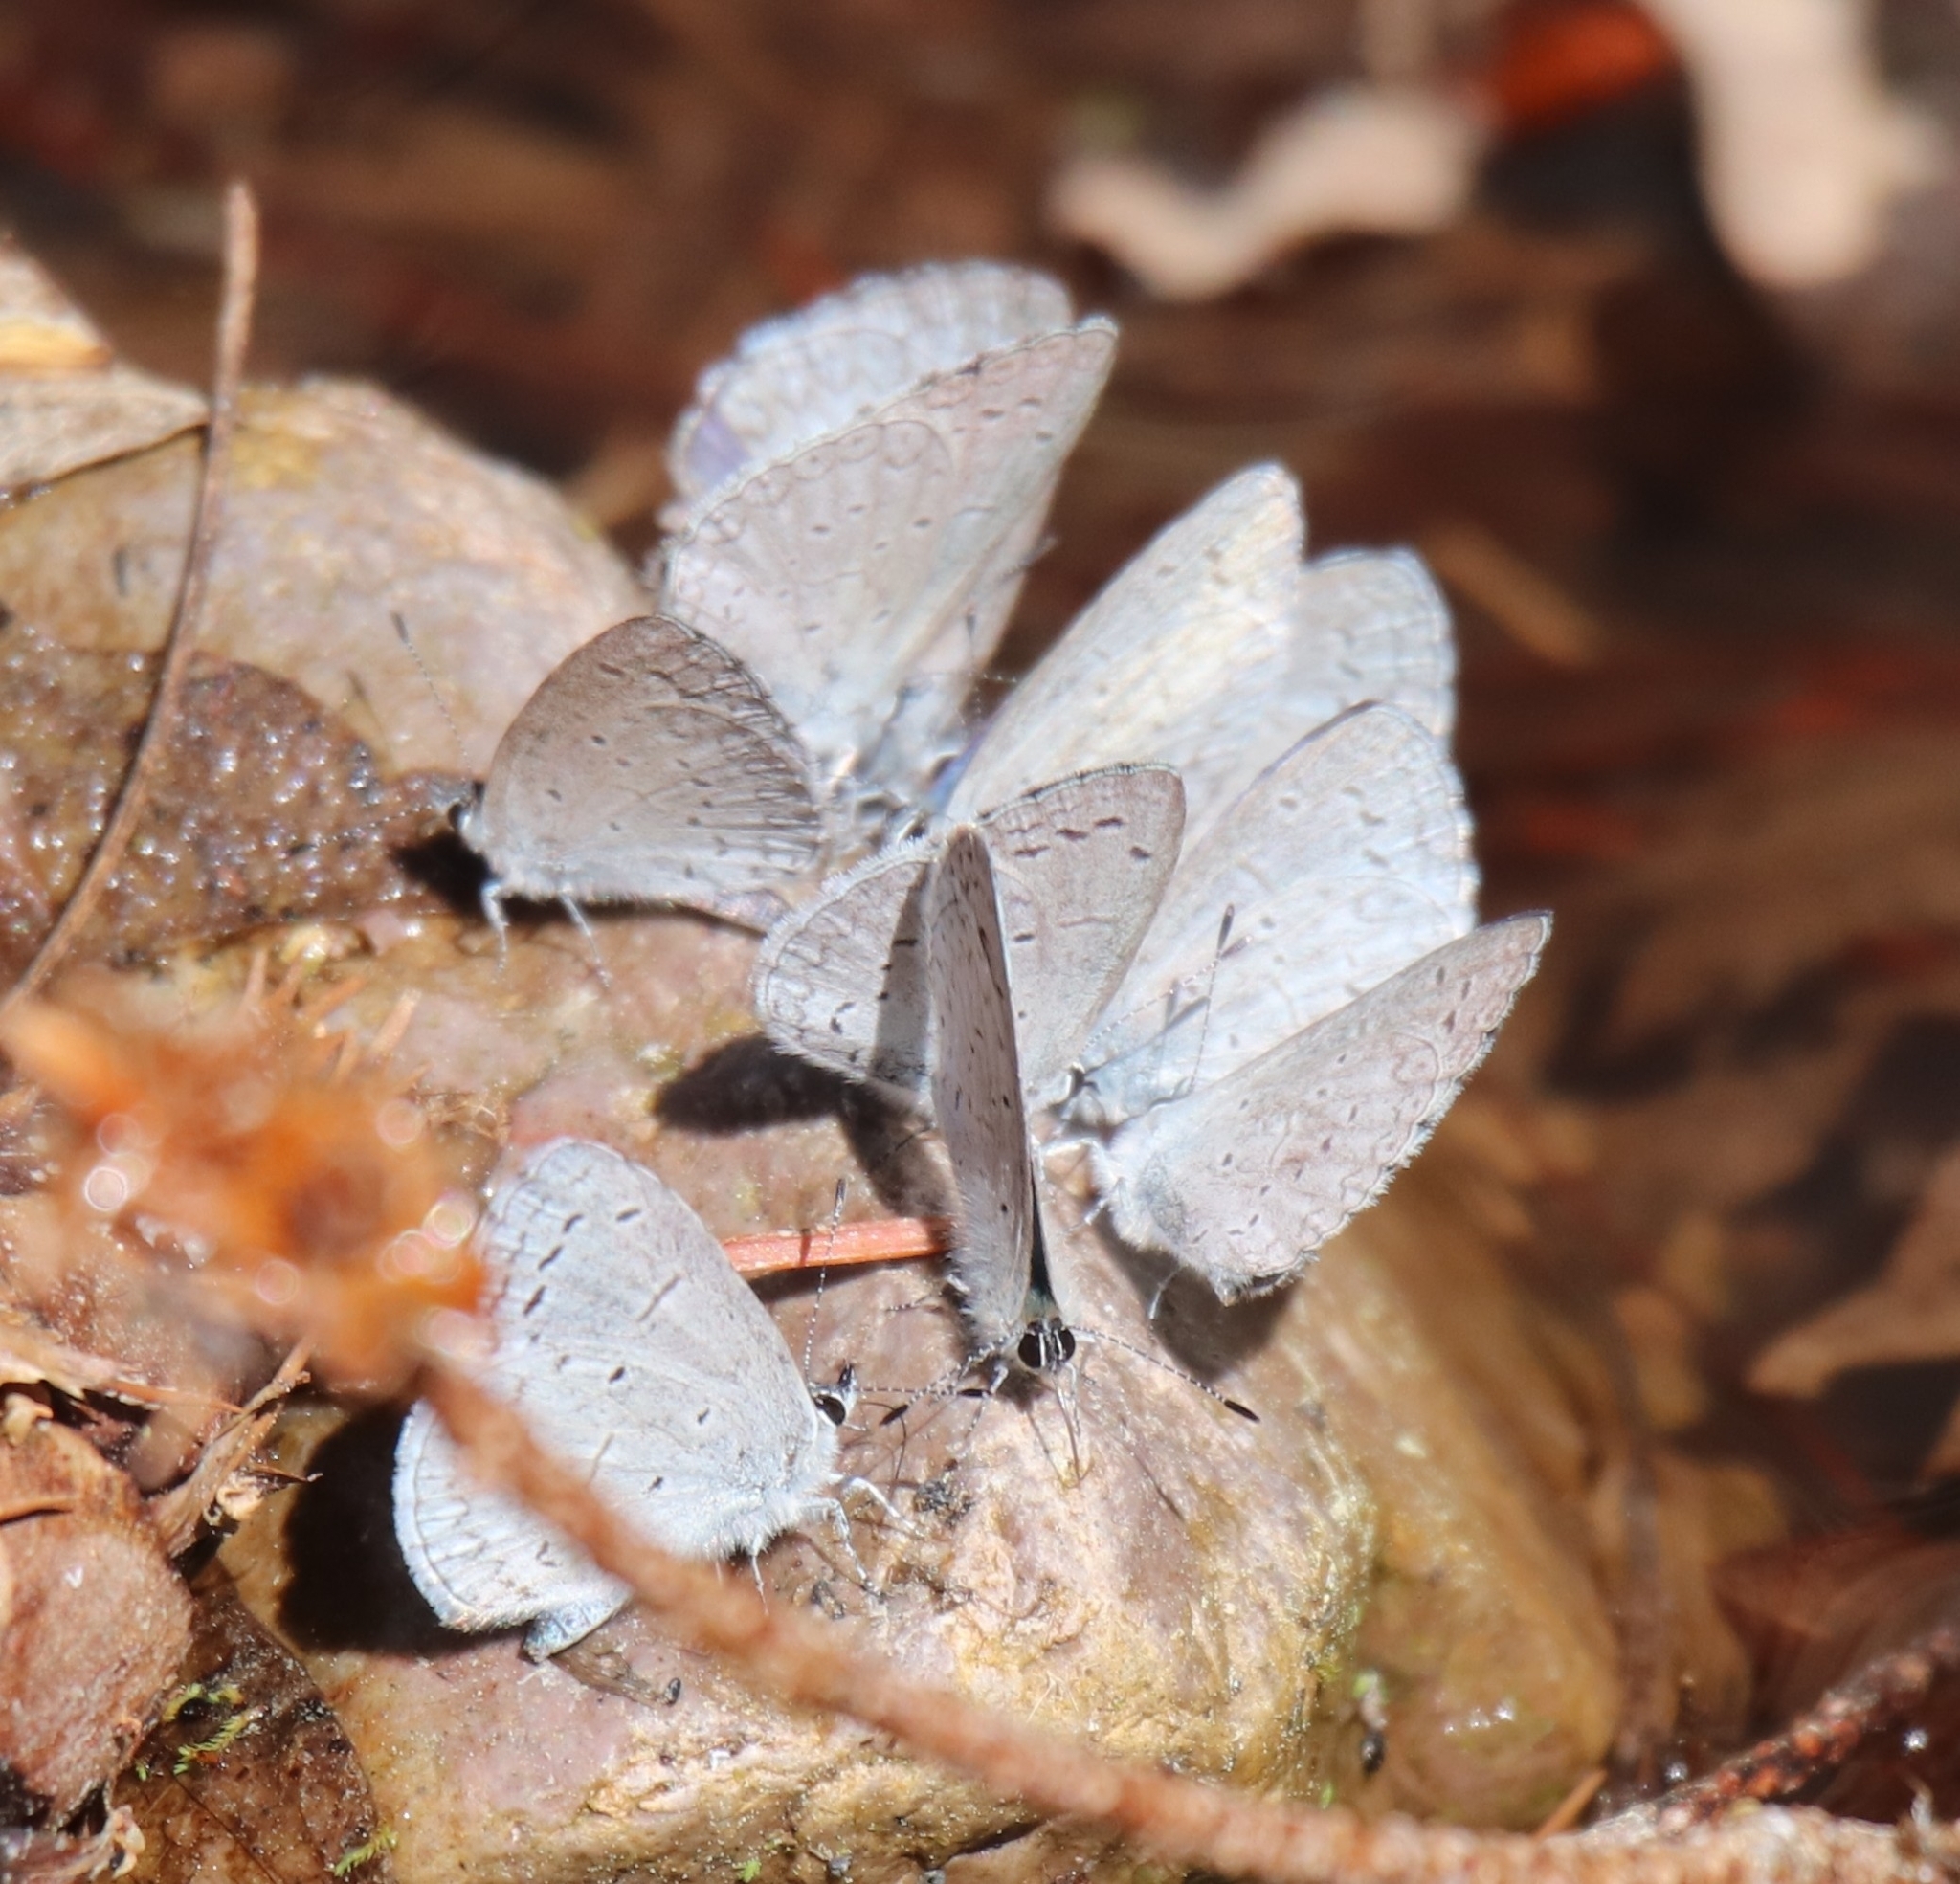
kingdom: Animalia
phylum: Arthropoda
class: Insecta
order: Lepidoptera
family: Lycaenidae
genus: Celastrina
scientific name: Celastrina ladon
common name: Spring azure
